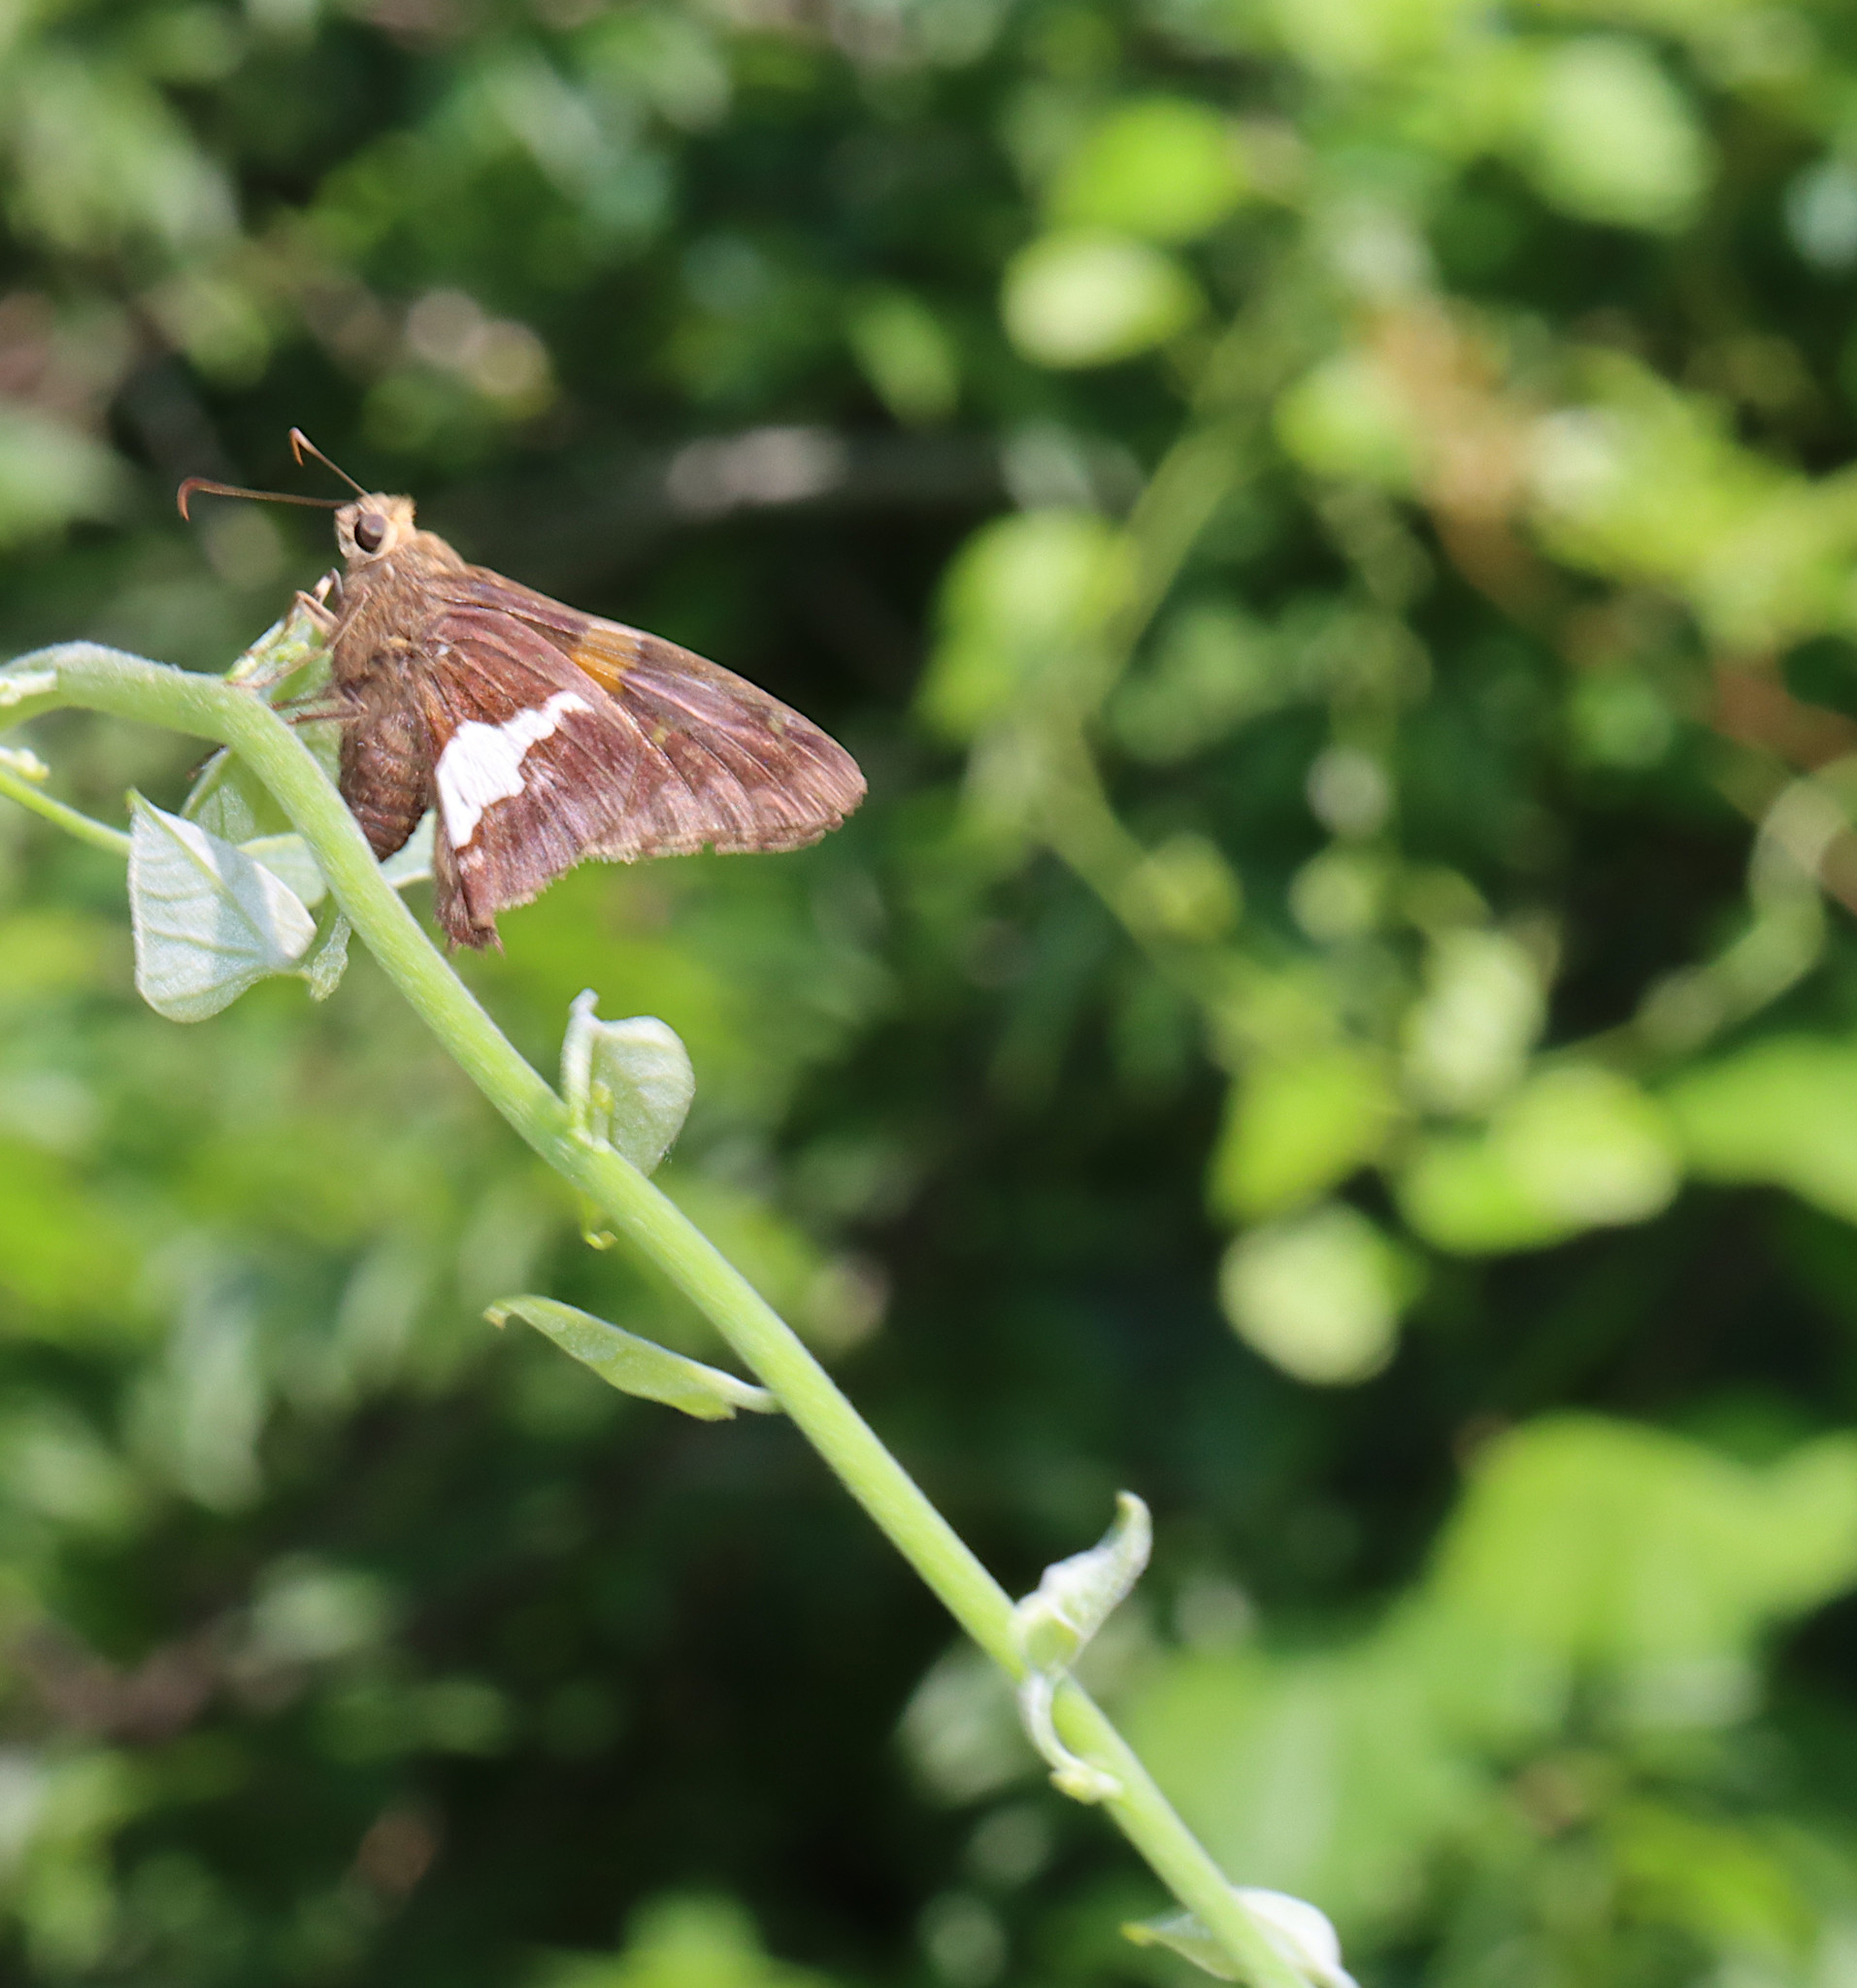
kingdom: Animalia
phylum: Arthropoda
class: Insecta
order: Lepidoptera
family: Hesperiidae
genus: Epargyreus
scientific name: Epargyreus clarus
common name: Silver-spotted skipper
